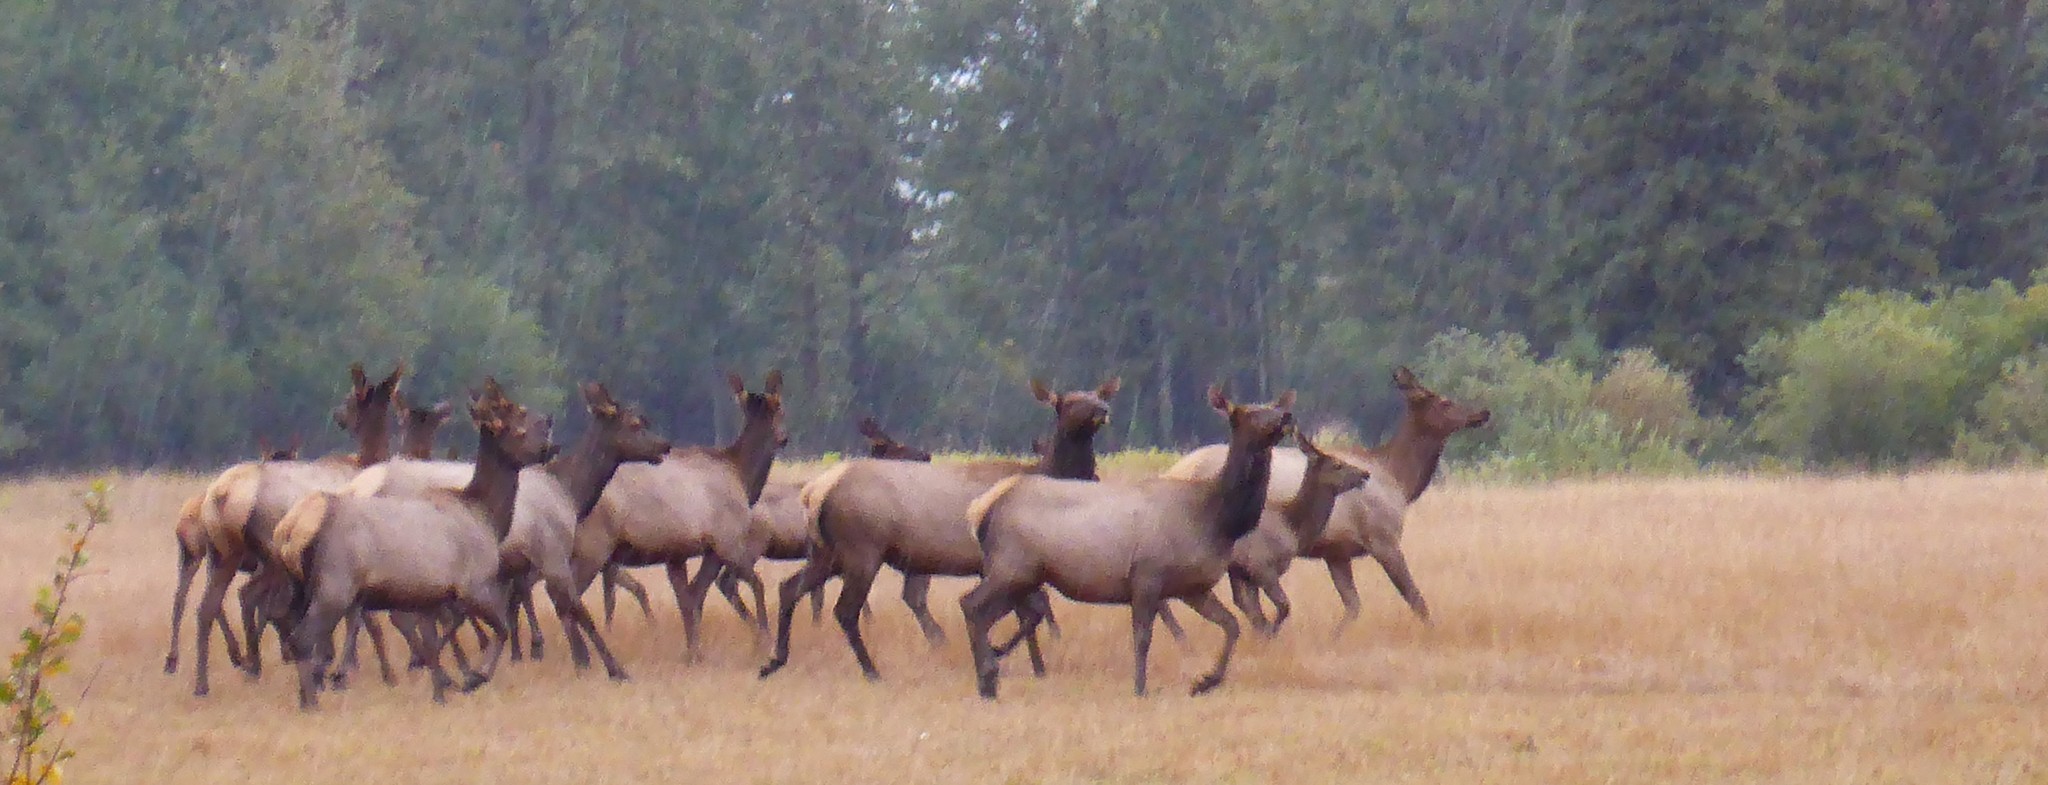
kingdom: Animalia
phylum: Chordata
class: Mammalia
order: Artiodactyla
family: Cervidae
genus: Cervus
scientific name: Cervus elaphus
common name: Red deer
